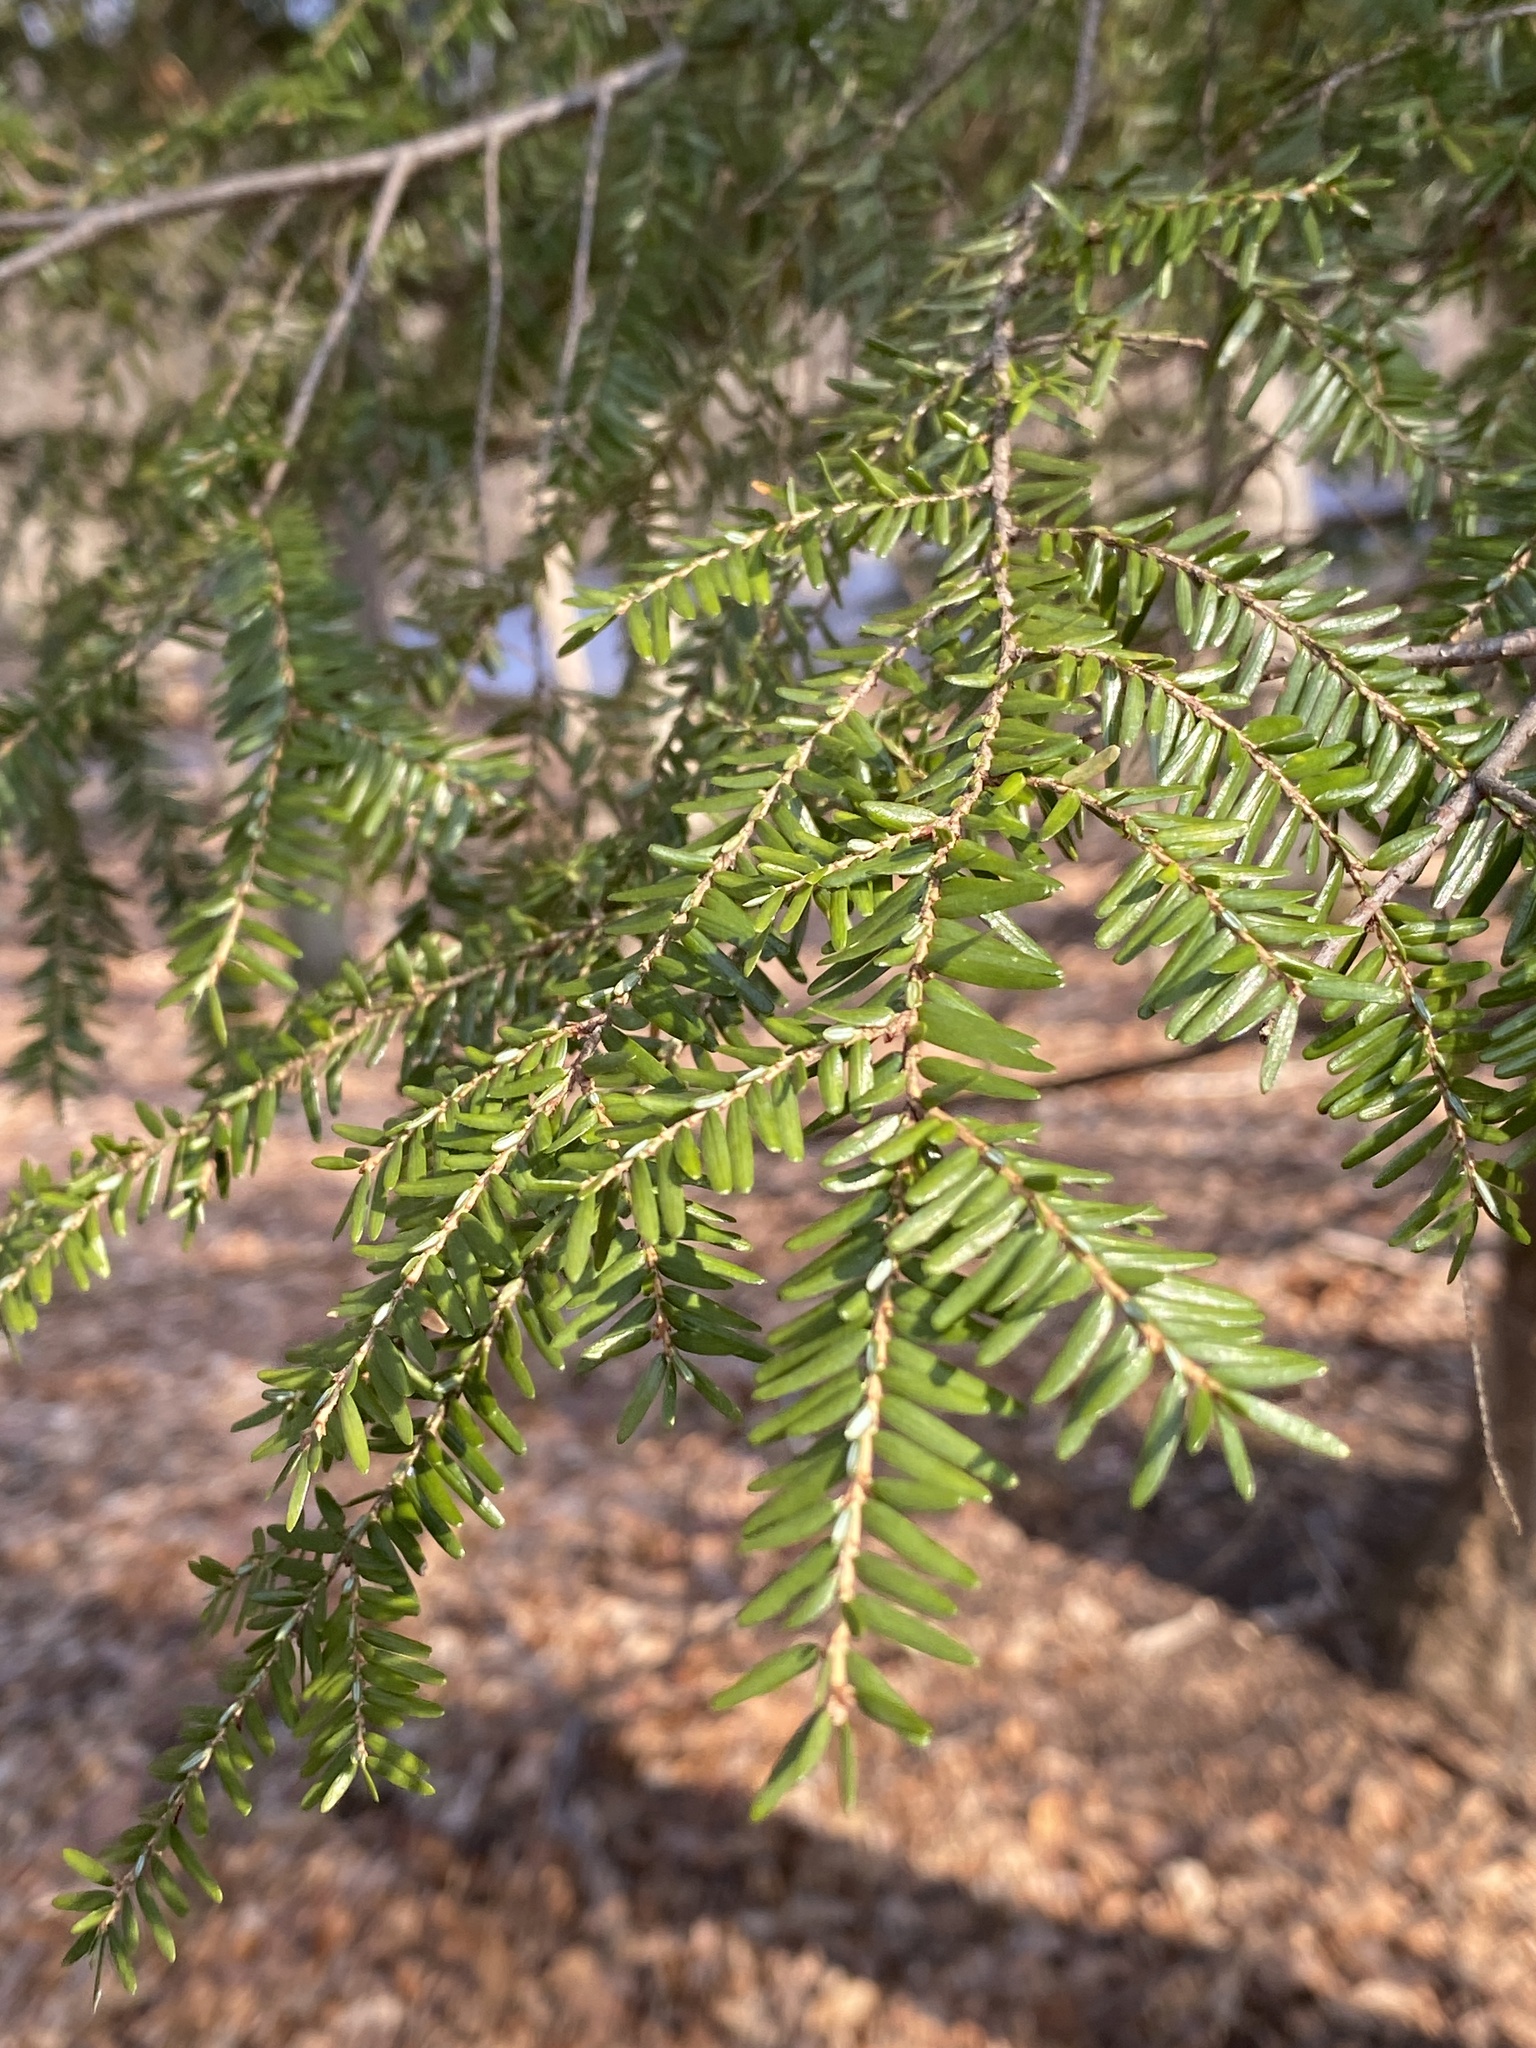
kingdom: Plantae
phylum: Tracheophyta
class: Pinopsida
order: Pinales
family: Pinaceae
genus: Tsuga
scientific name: Tsuga canadensis
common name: Eastern hemlock
